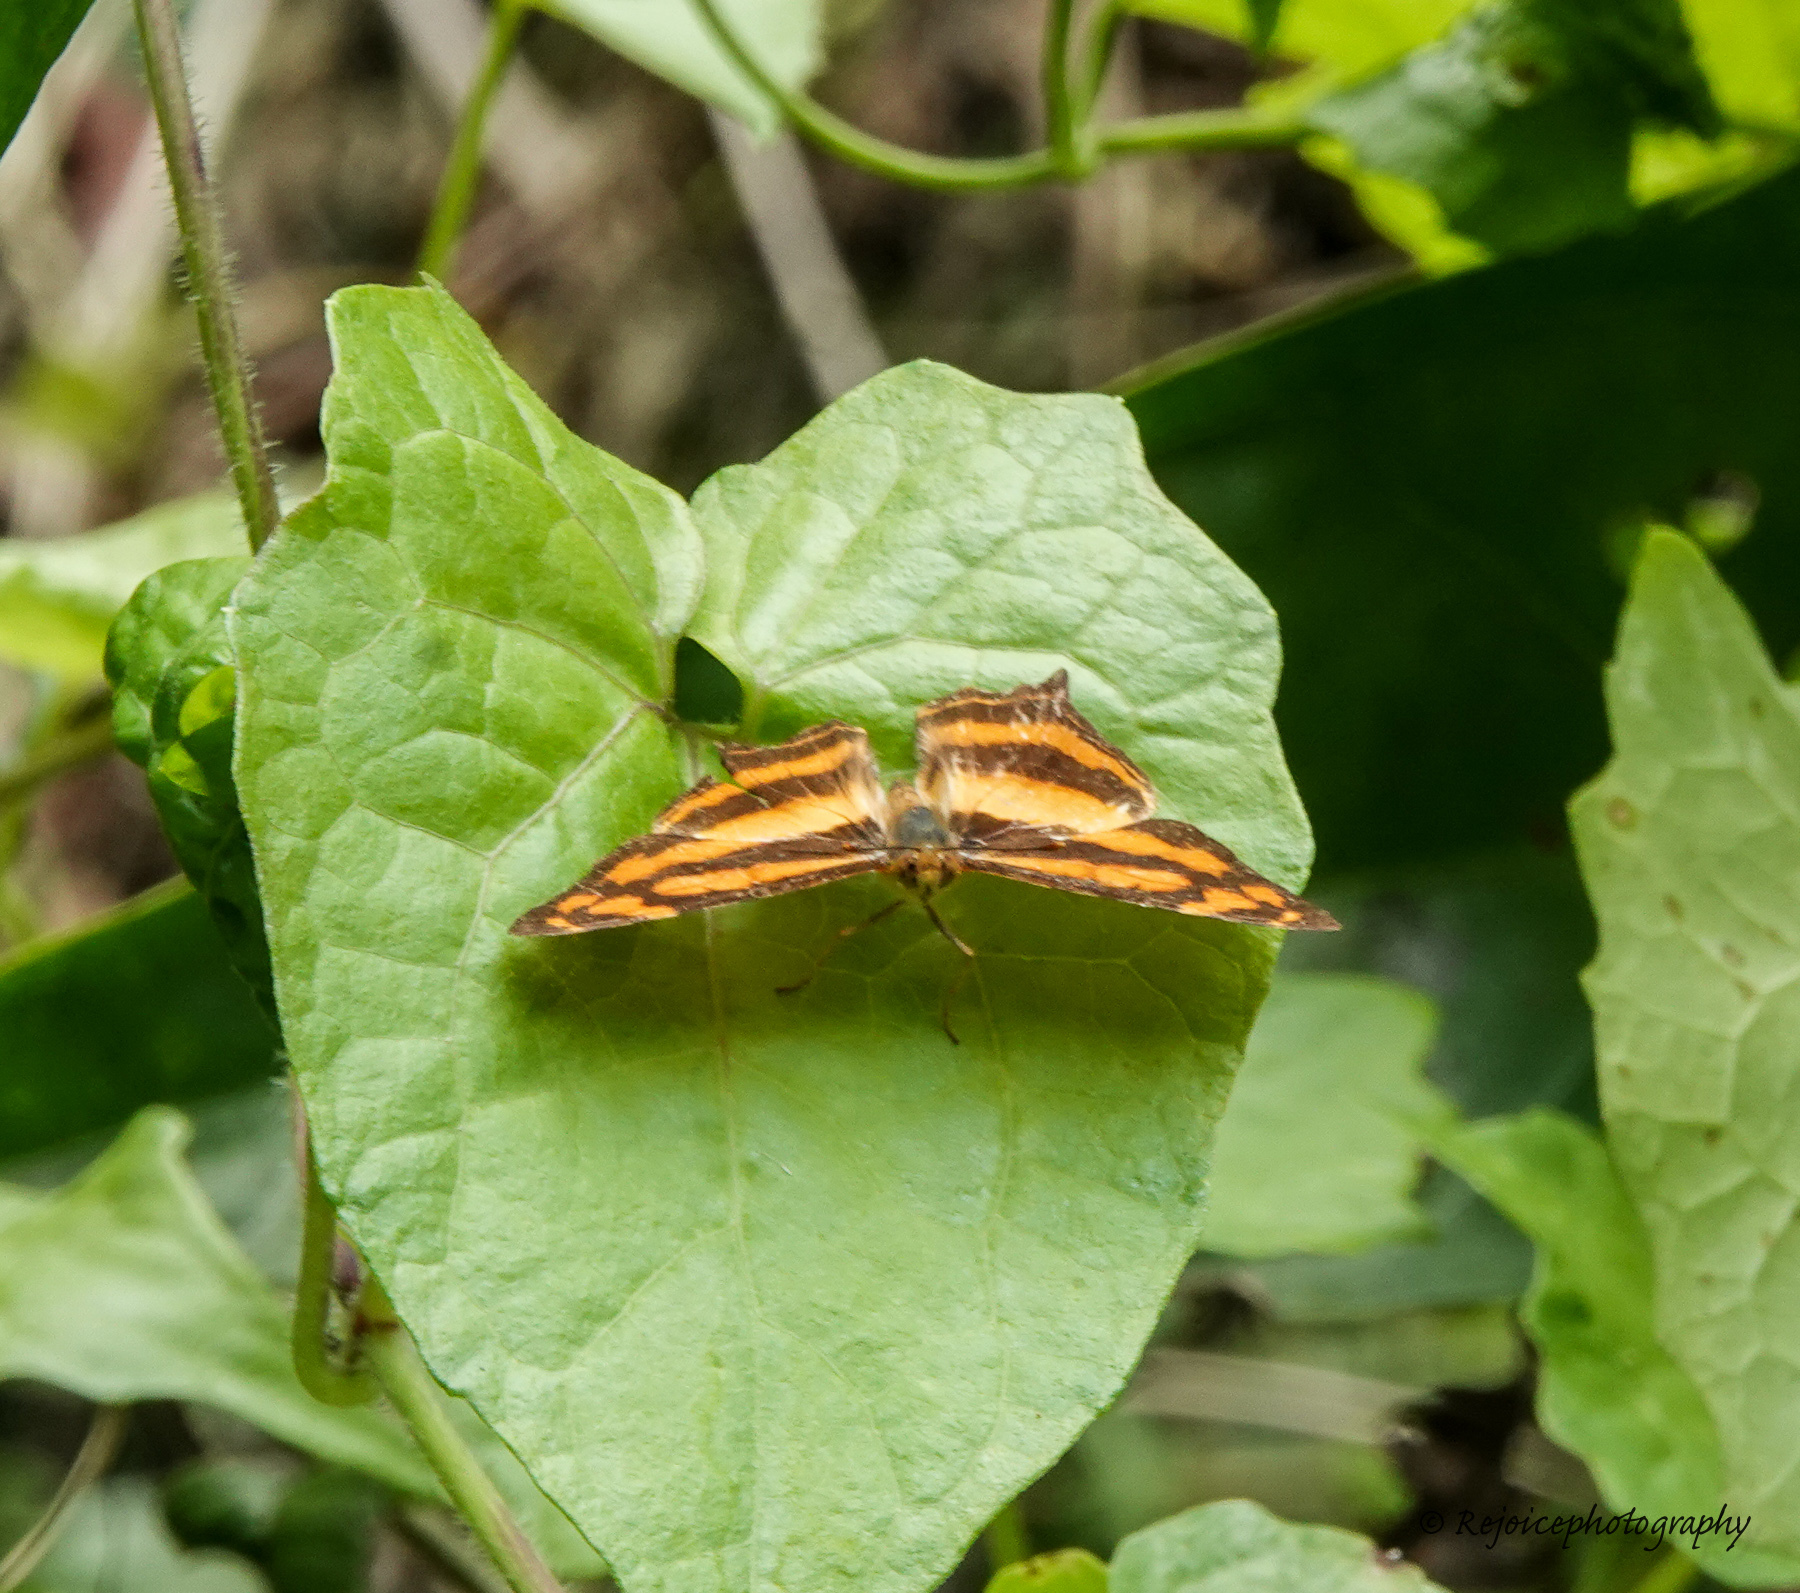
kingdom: Animalia
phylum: Arthropoda
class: Insecta
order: Lepidoptera
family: Nymphalidae
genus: Symbrenthia
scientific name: Symbrenthia hypselis
